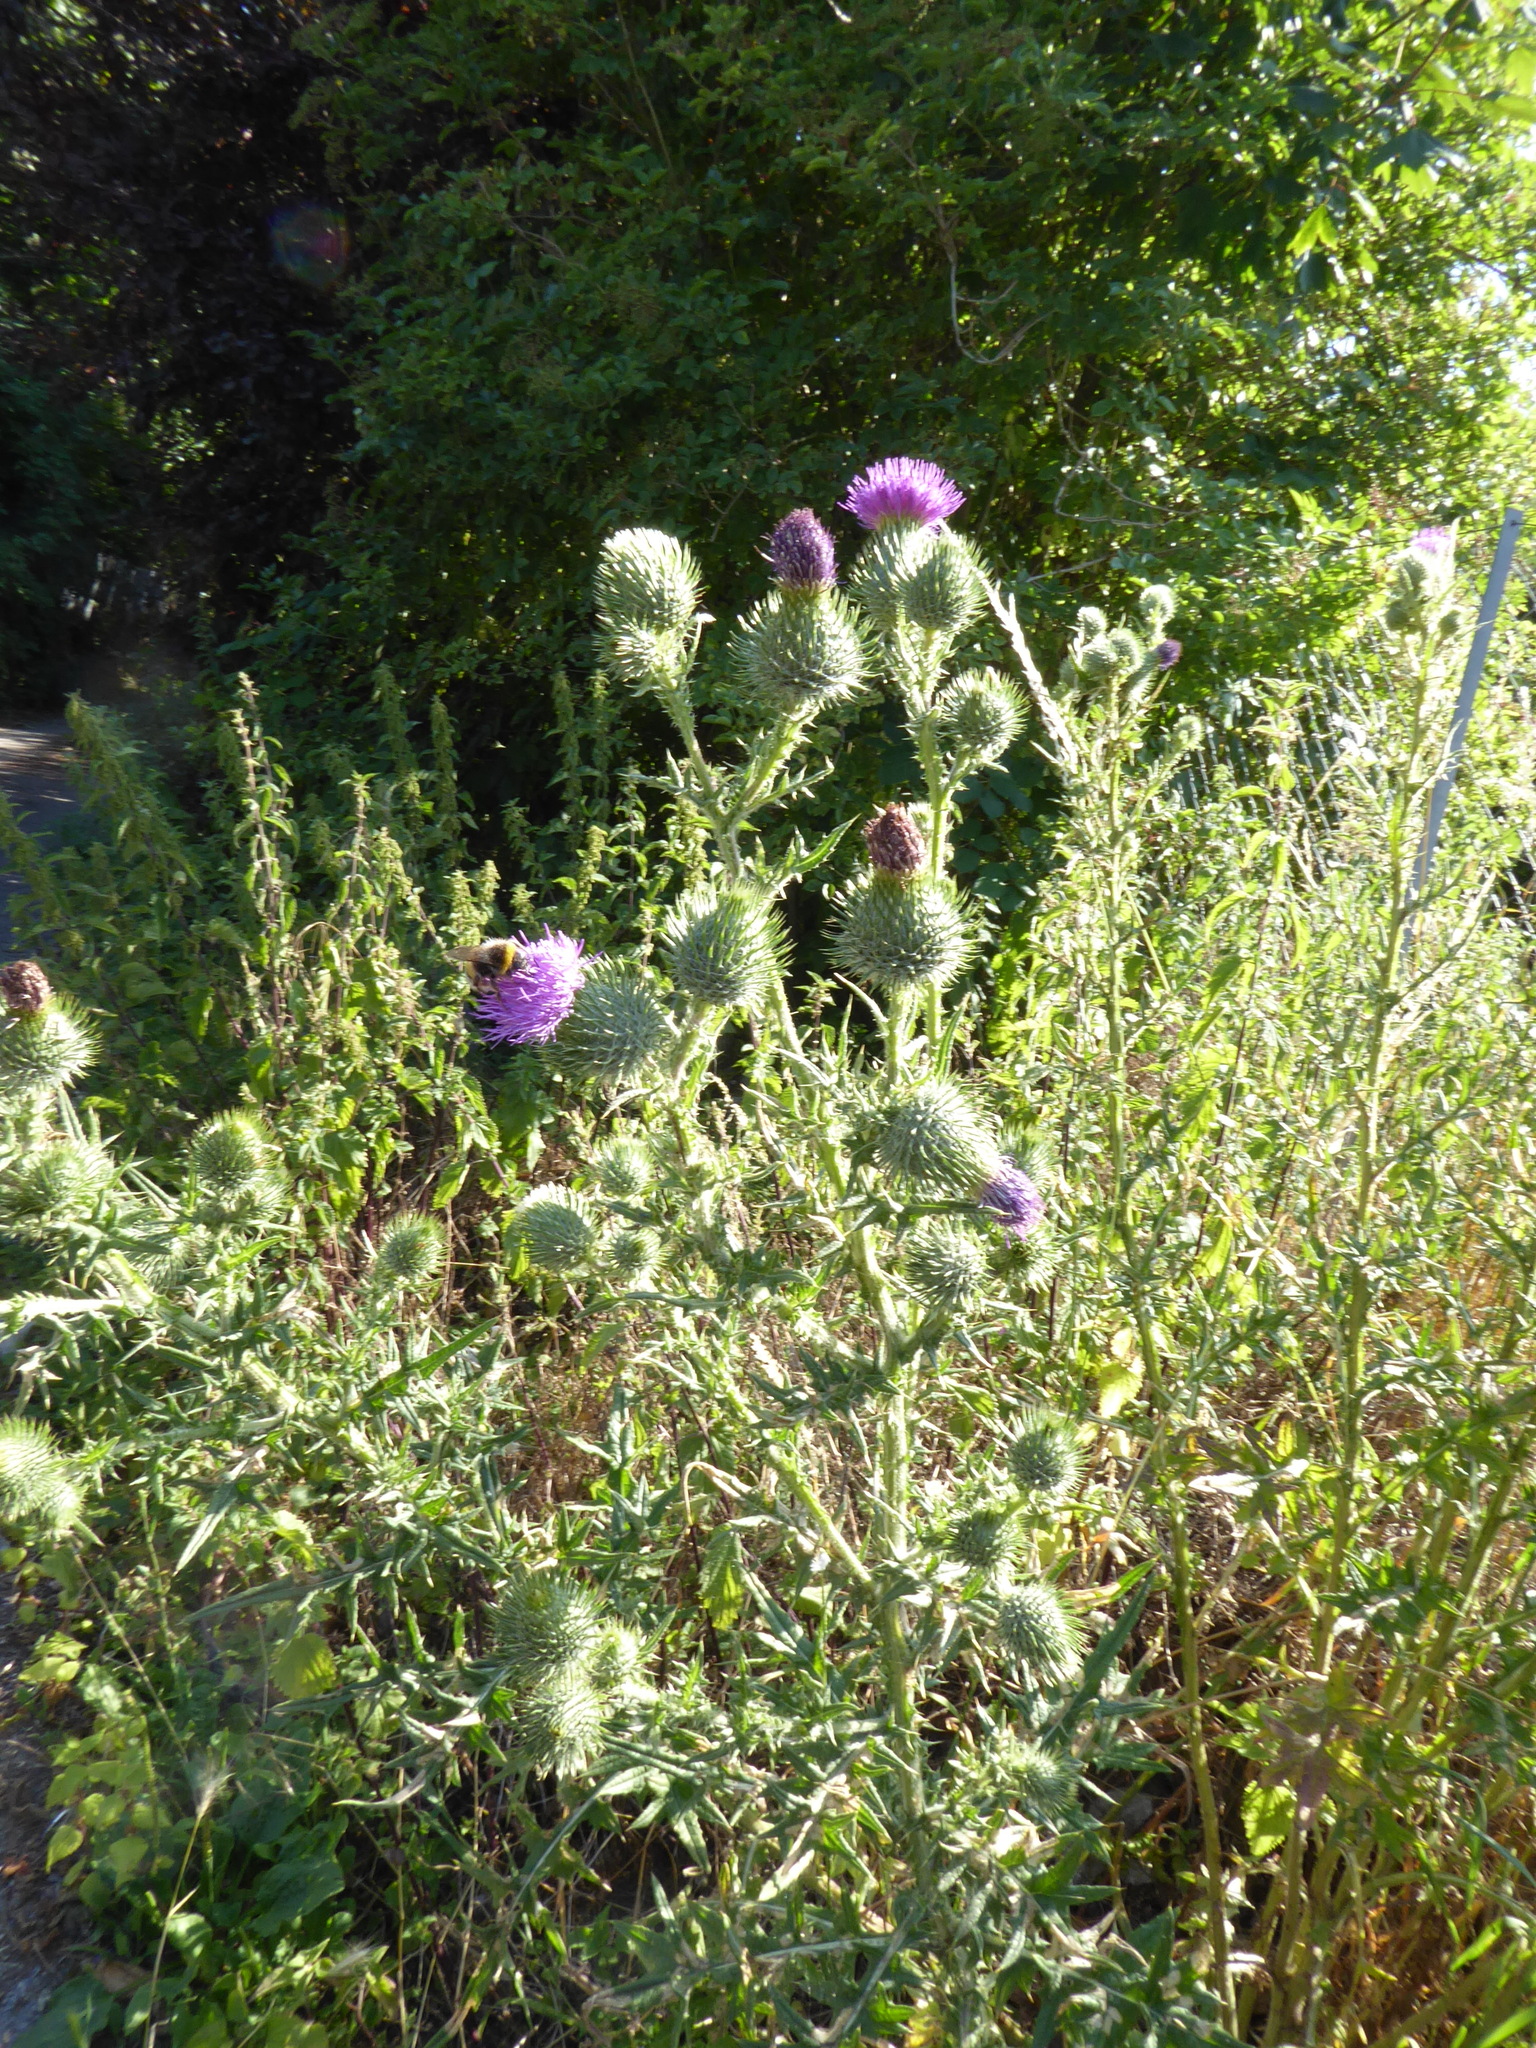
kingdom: Plantae
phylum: Tracheophyta
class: Magnoliopsida
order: Asterales
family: Asteraceae
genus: Cirsium
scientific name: Cirsium vulgare
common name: Bull thistle
